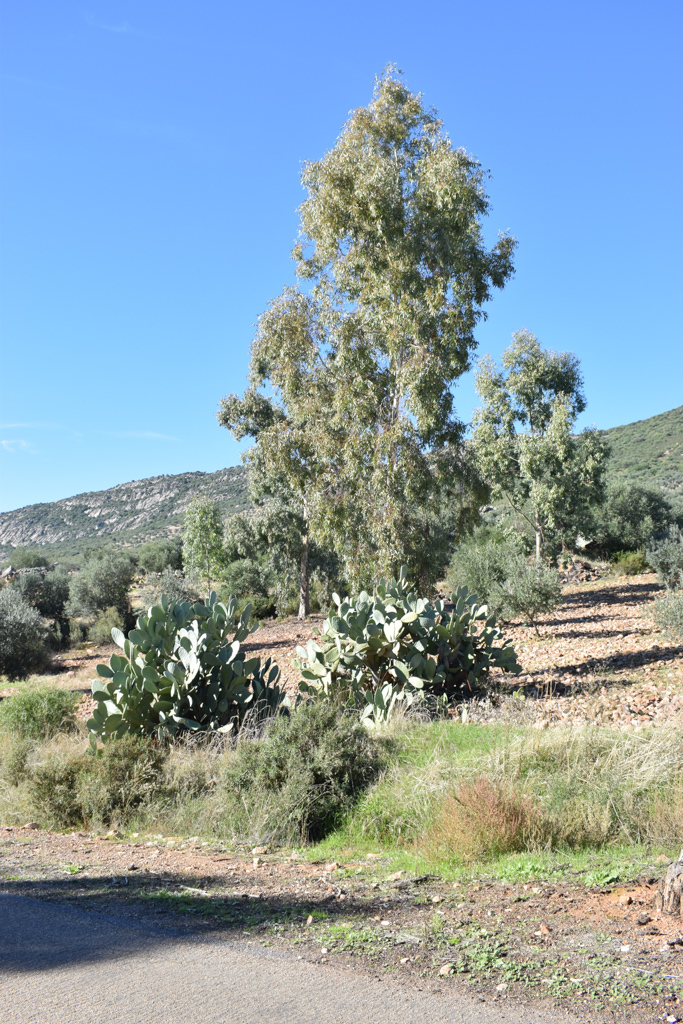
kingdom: Plantae
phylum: Tracheophyta
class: Magnoliopsida
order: Myrtales
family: Myrtaceae
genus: Eucalyptus
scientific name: Eucalyptus camaldulensis
